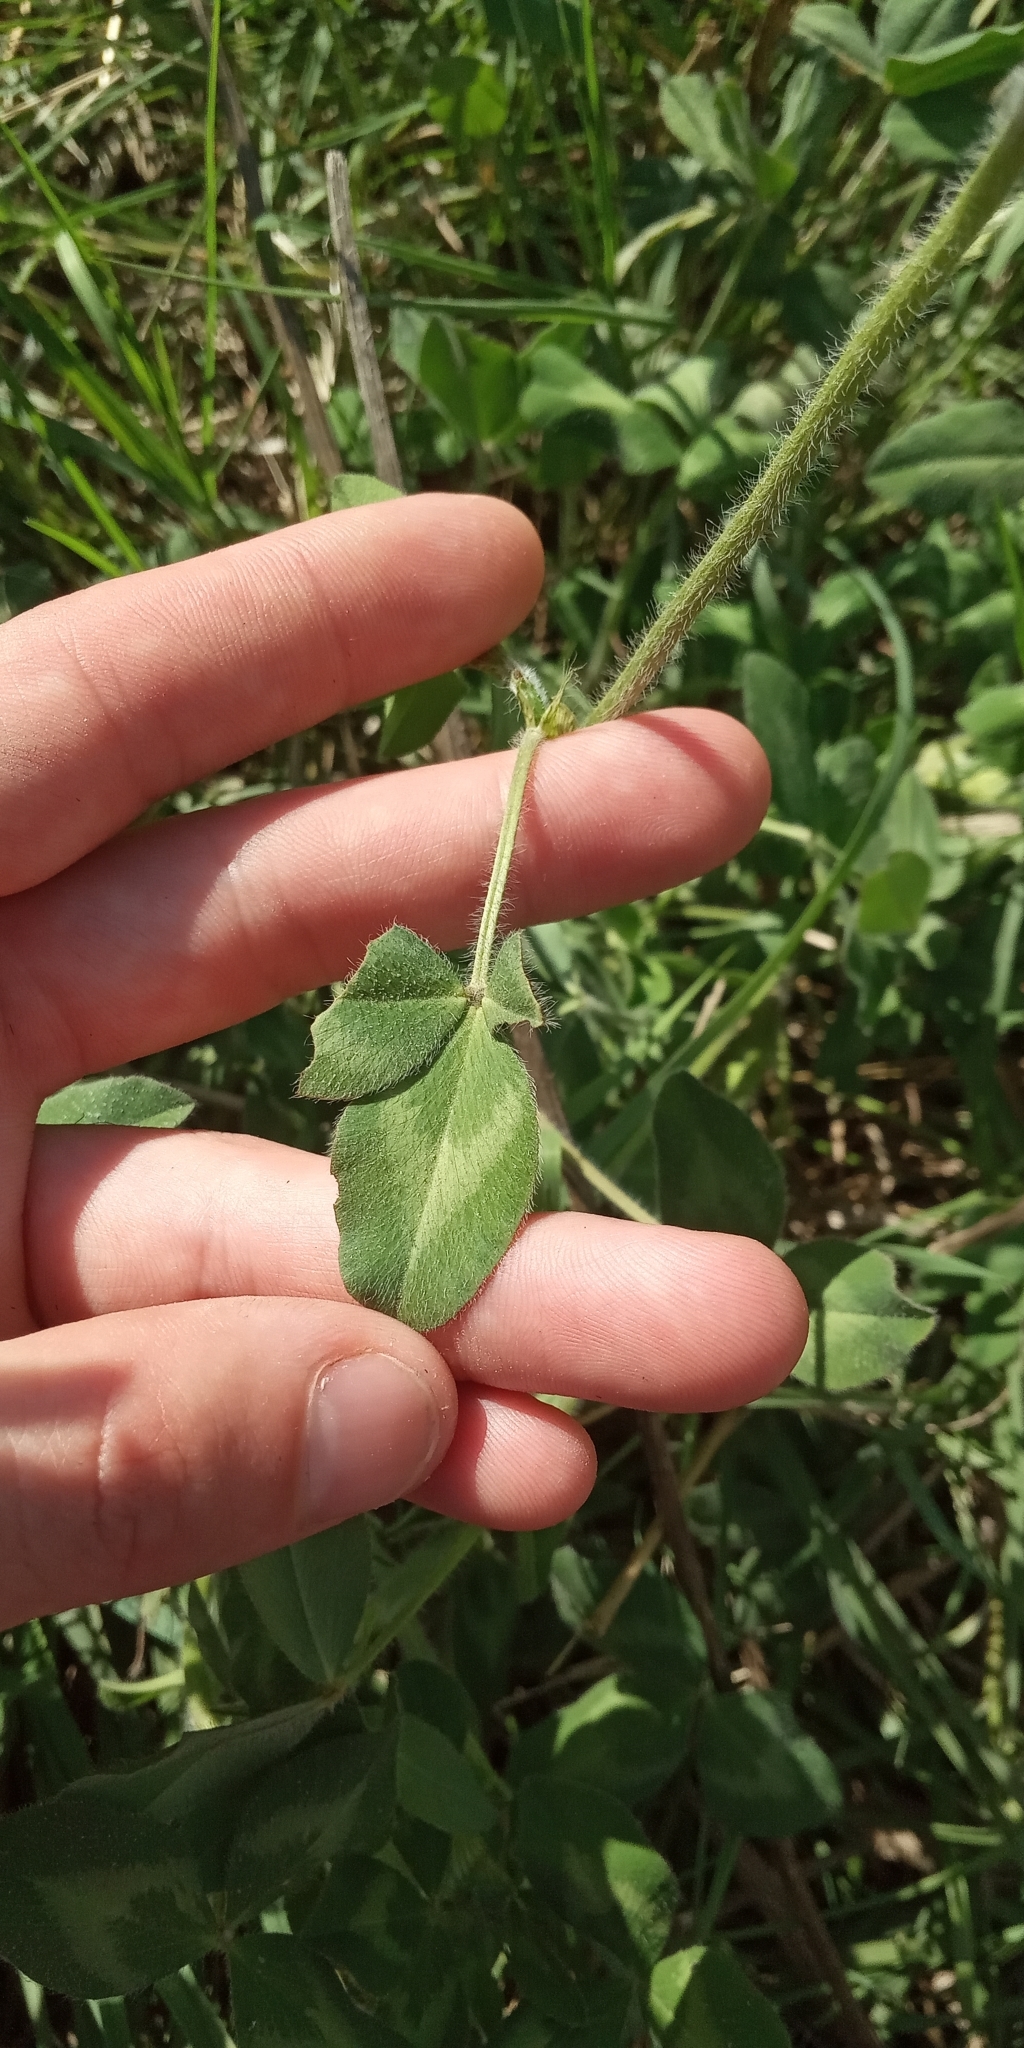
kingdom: Plantae
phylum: Tracheophyta
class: Magnoliopsida
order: Fabales
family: Fabaceae
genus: Trifolium
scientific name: Trifolium pratense
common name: Red clover
